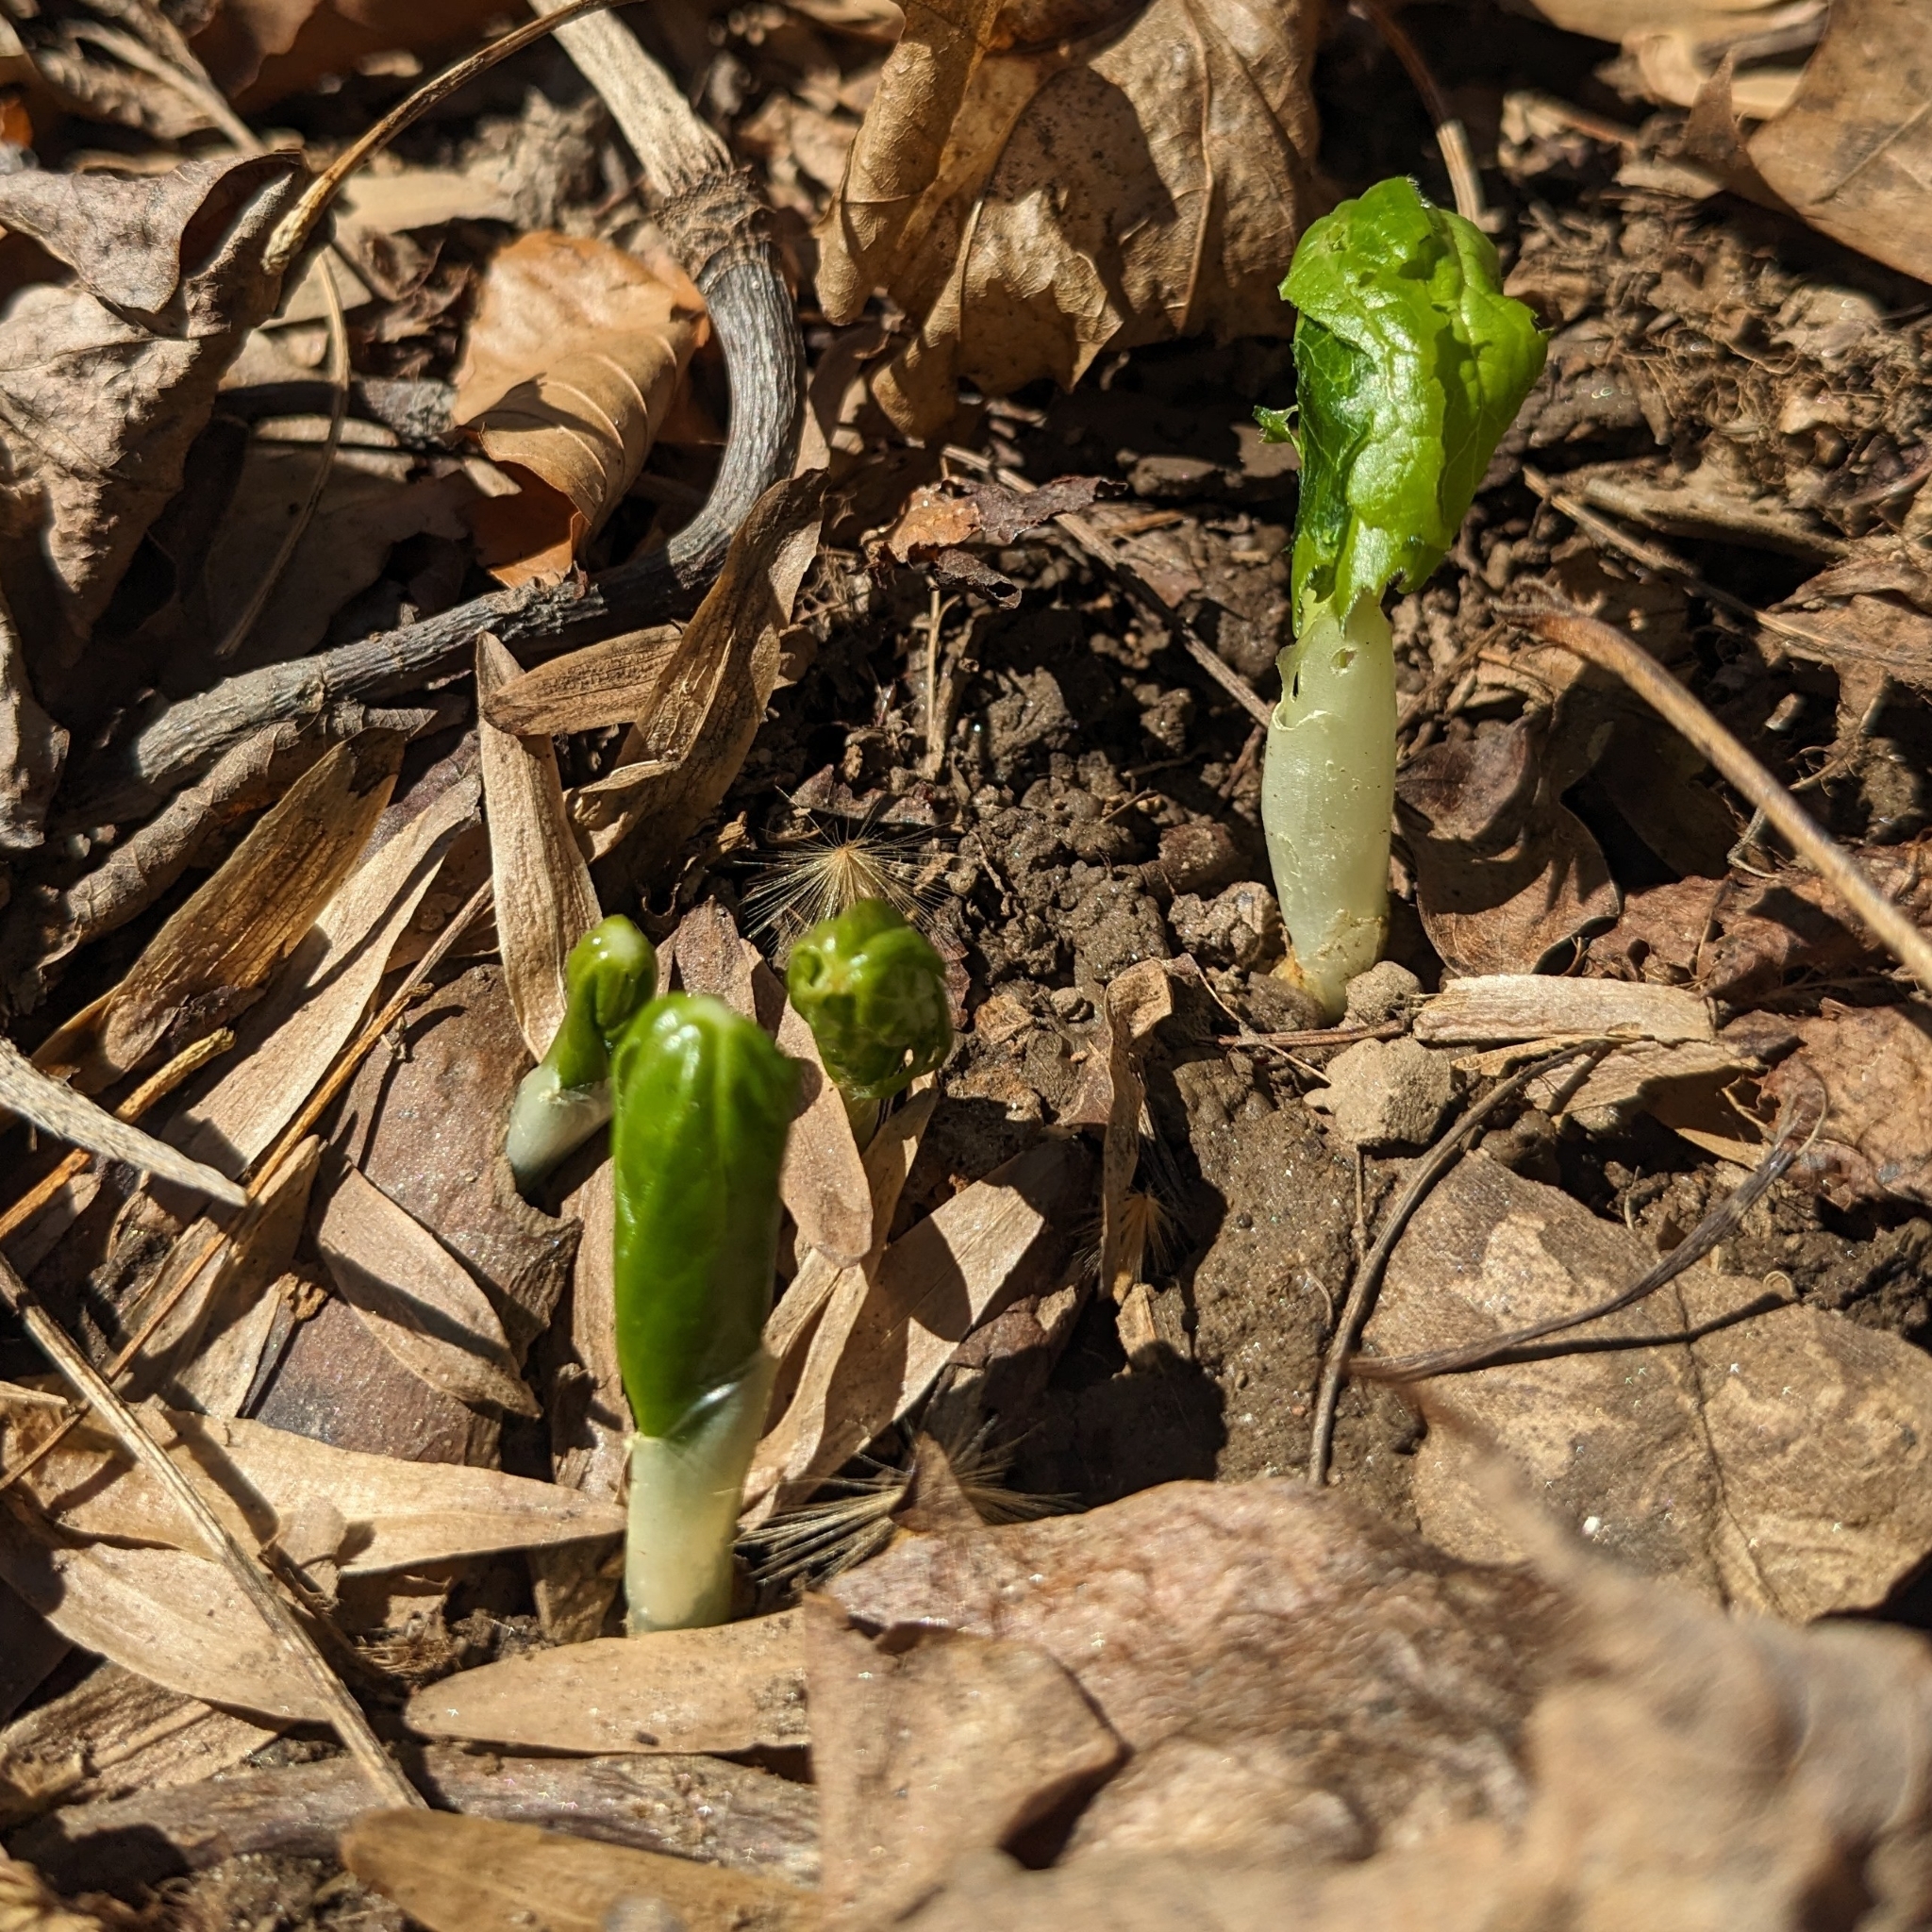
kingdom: Plantae
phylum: Tracheophyta
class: Magnoliopsida
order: Ranunculales
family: Berberidaceae
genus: Podophyllum
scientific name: Podophyllum peltatum
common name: Wild mandrake
